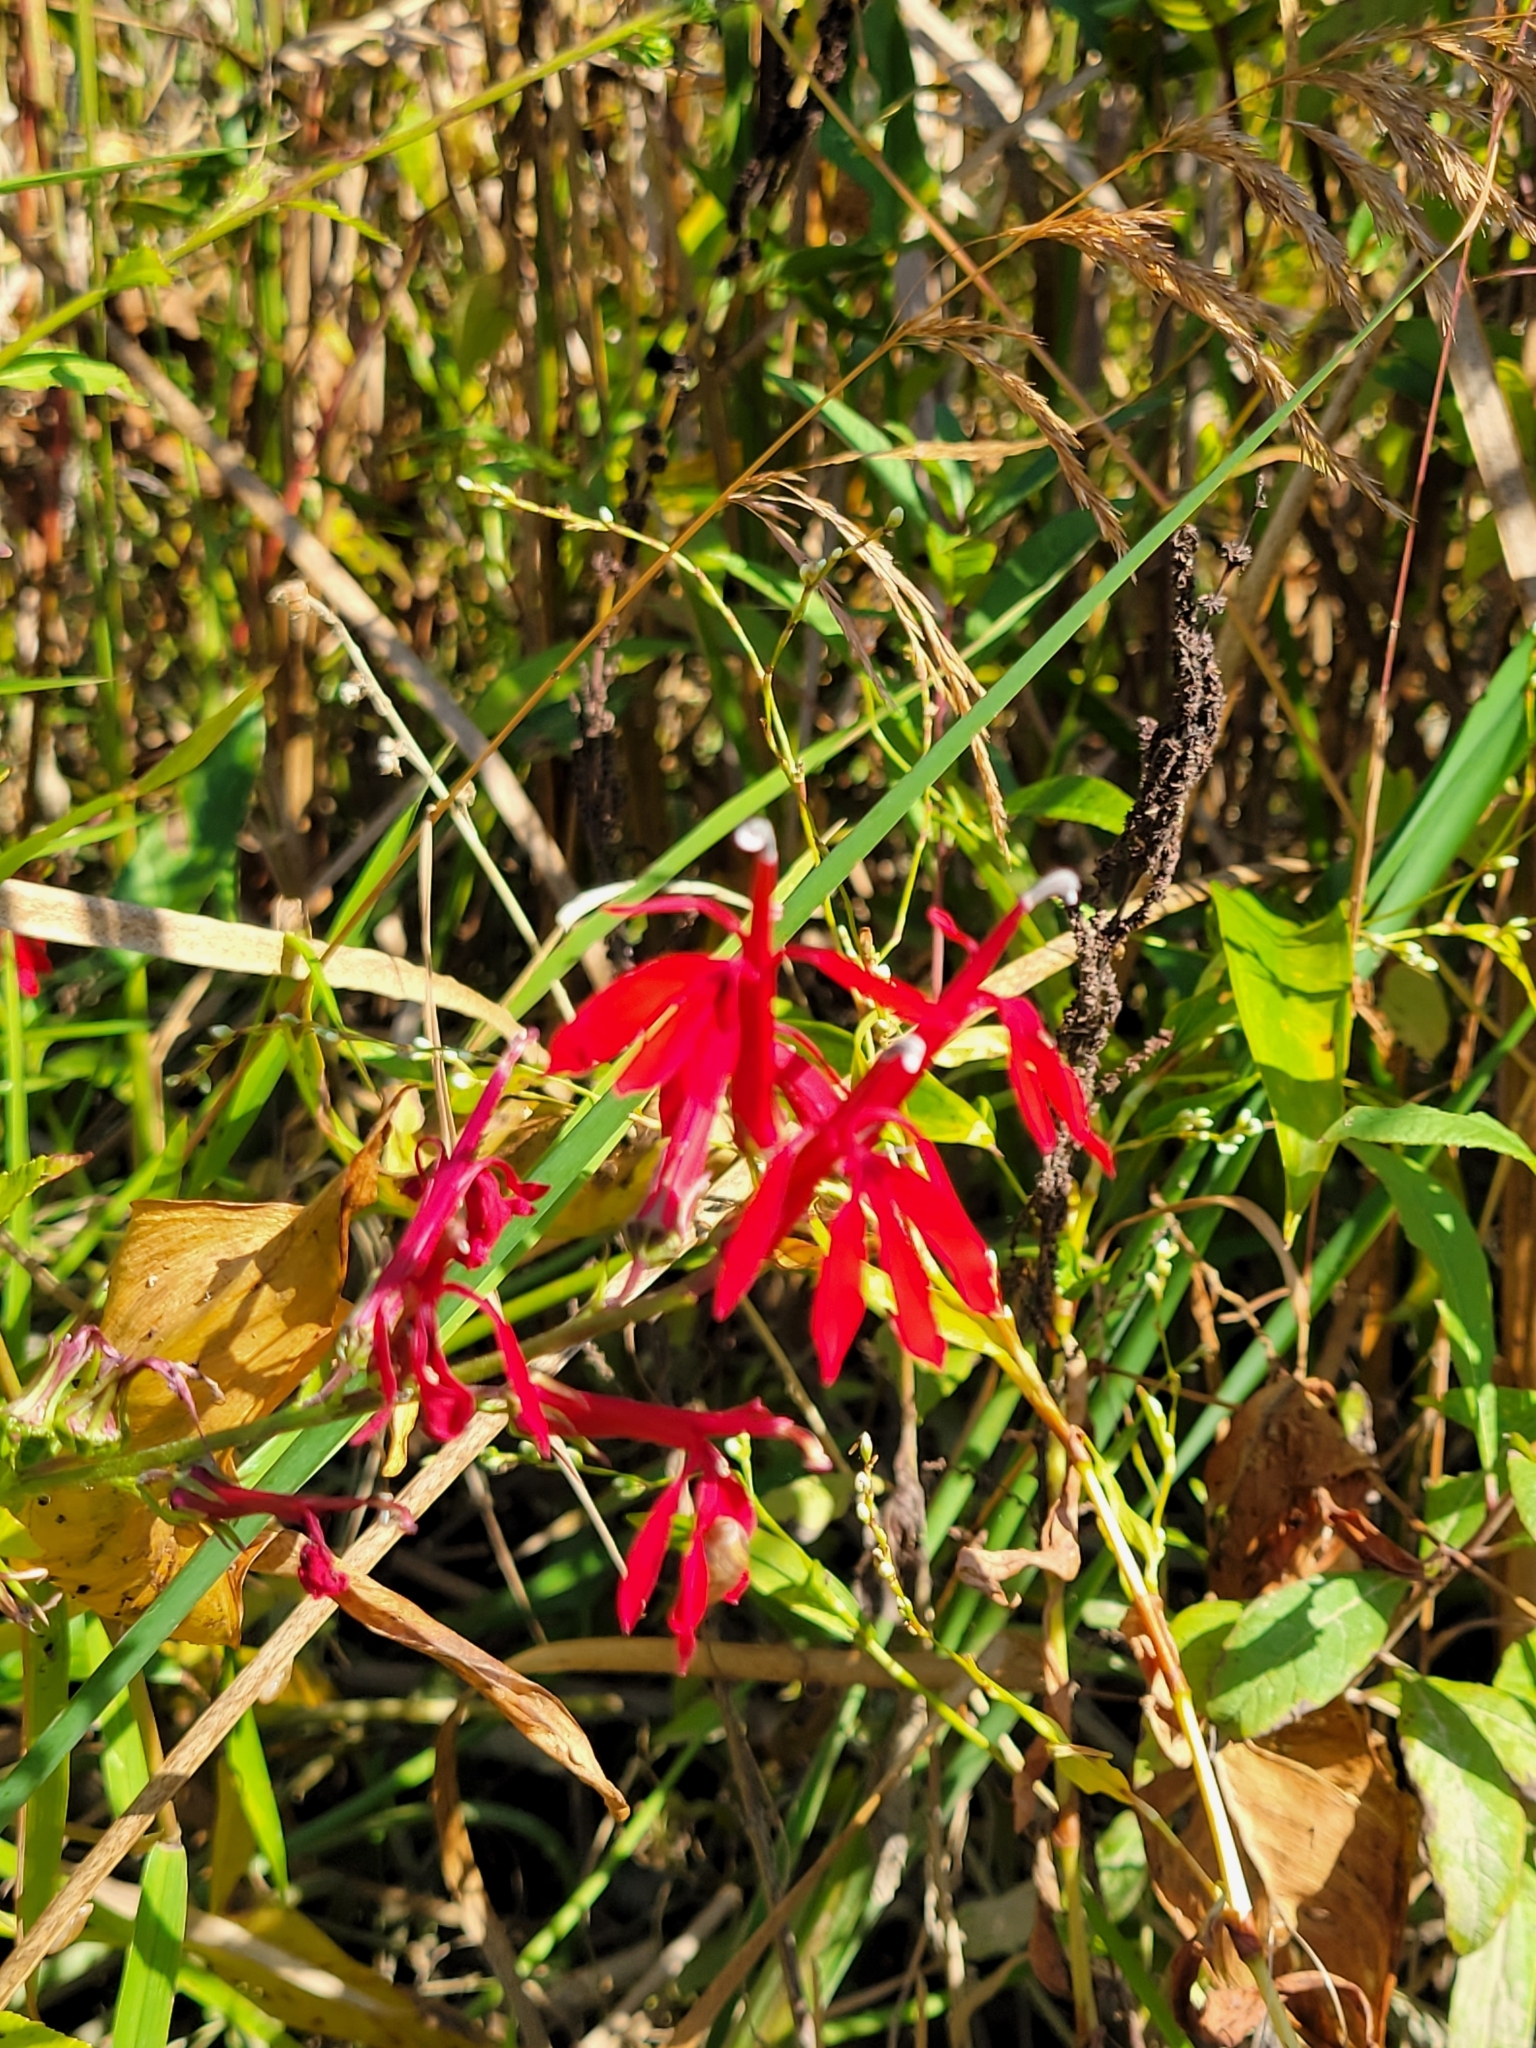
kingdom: Plantae
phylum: Tracheophyta
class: Magnoliopsida
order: Asterales
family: Campanulaceae
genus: Lobelia
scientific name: Lobelia cardinalis
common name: Cardinal flower
